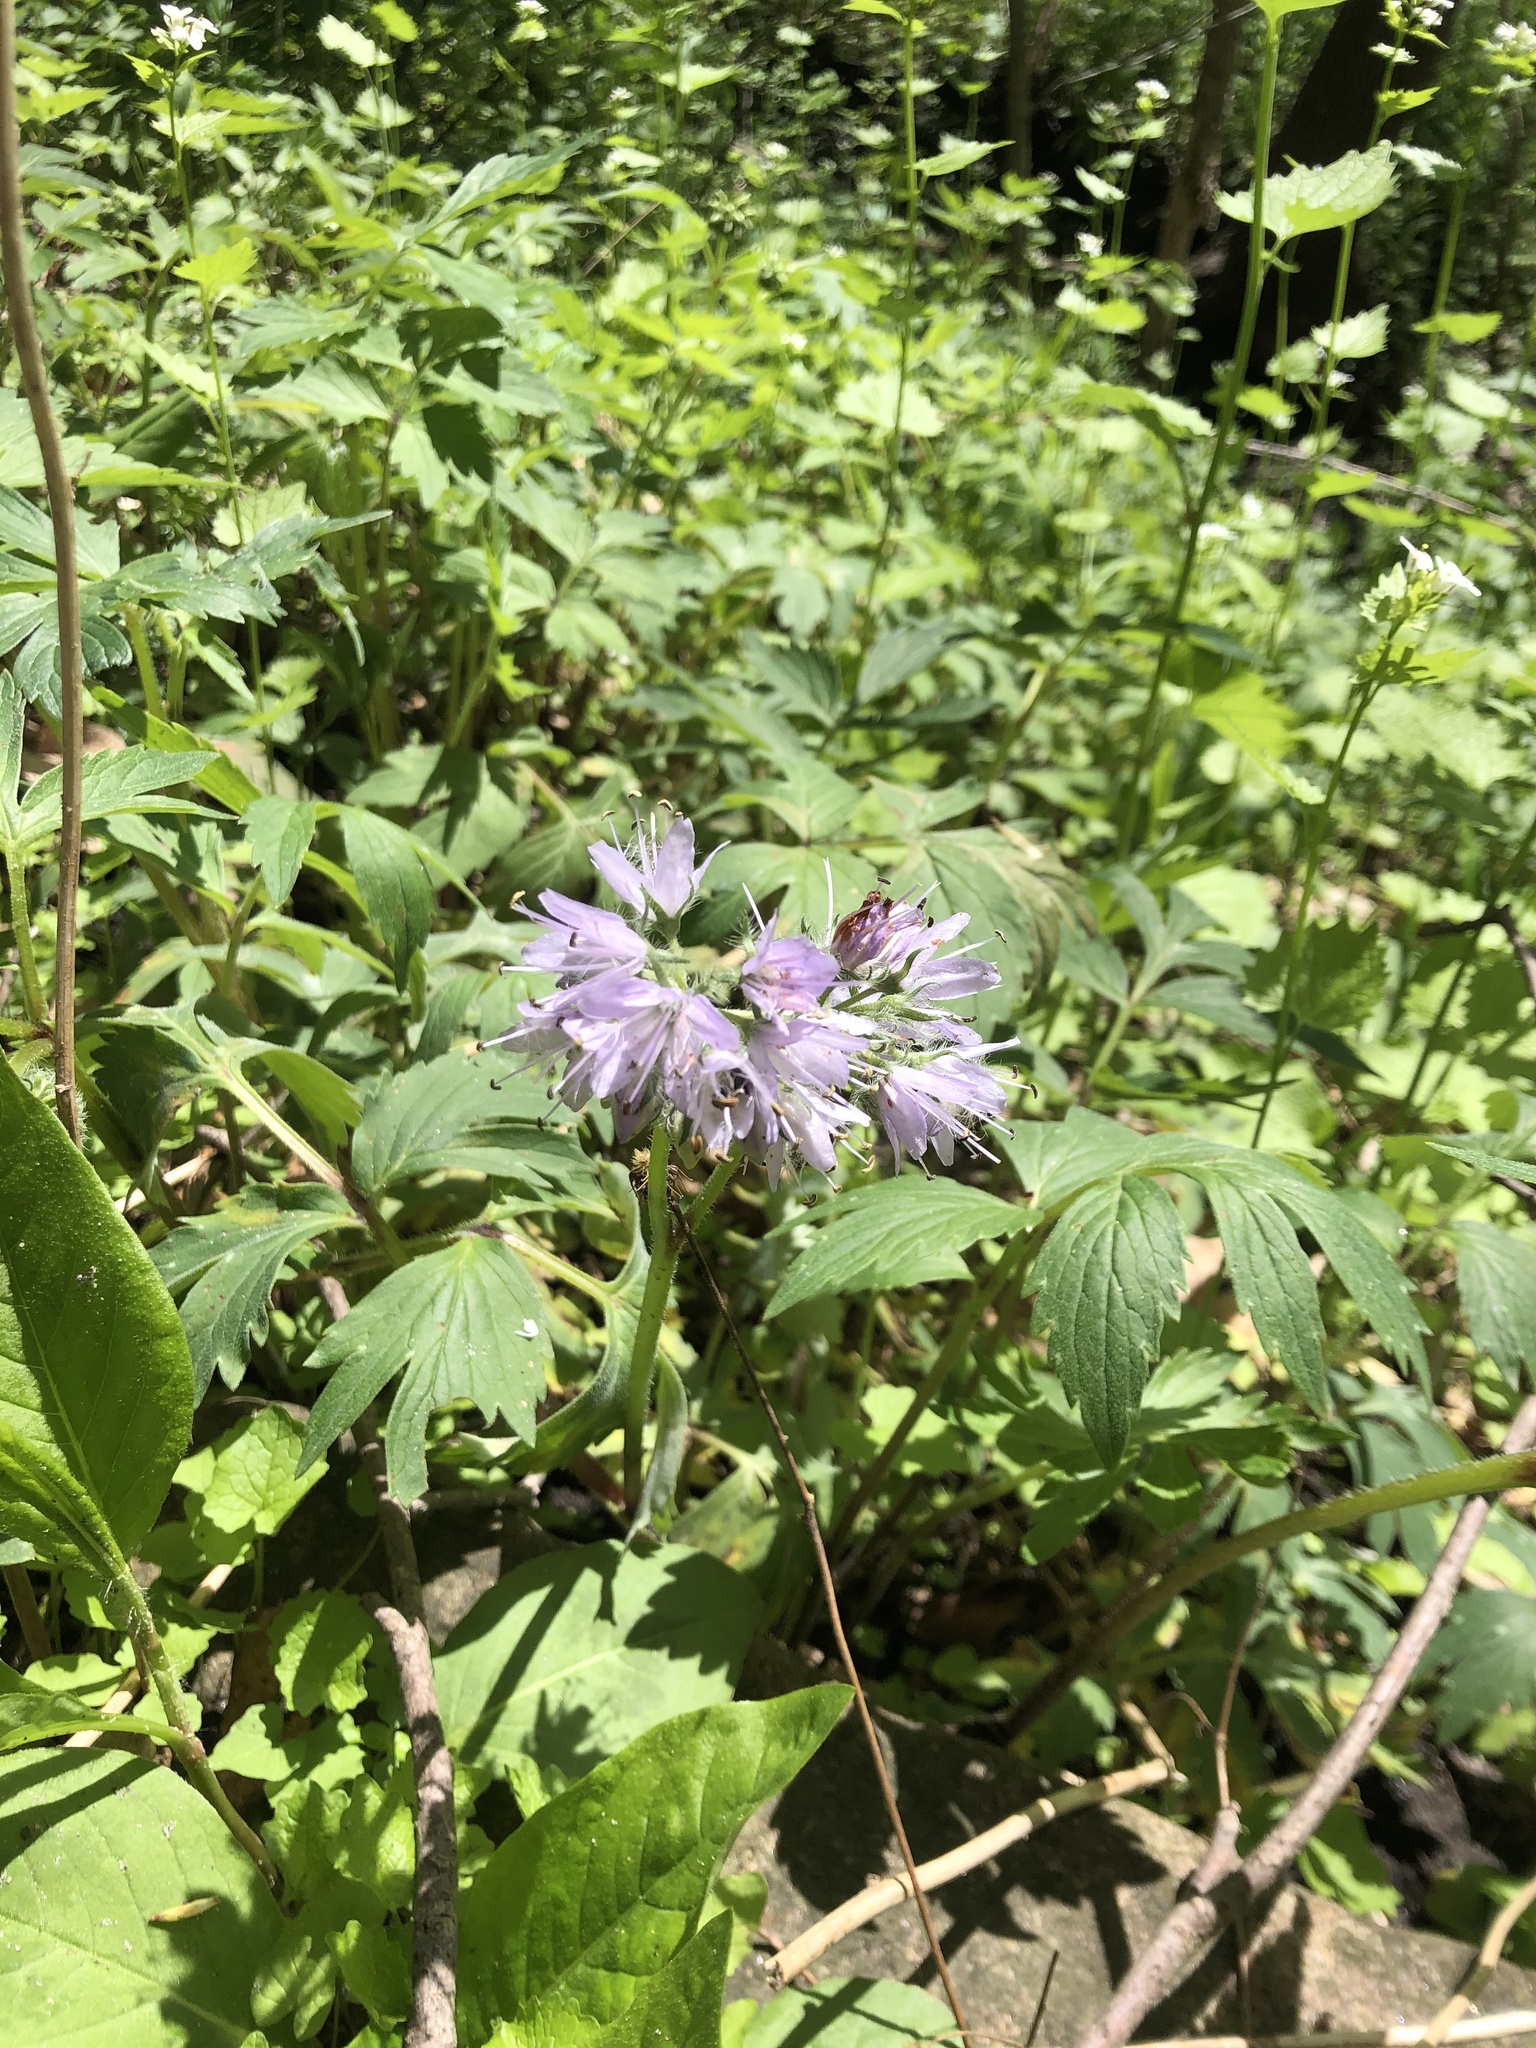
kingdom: Plantae
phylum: Tracheophyta
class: Magnoliopsida
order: Boraginales
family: Hydrophyllaceae
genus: Hydrophyllum
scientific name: Hydrophyllum virginianum
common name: Virginia waterleaf
